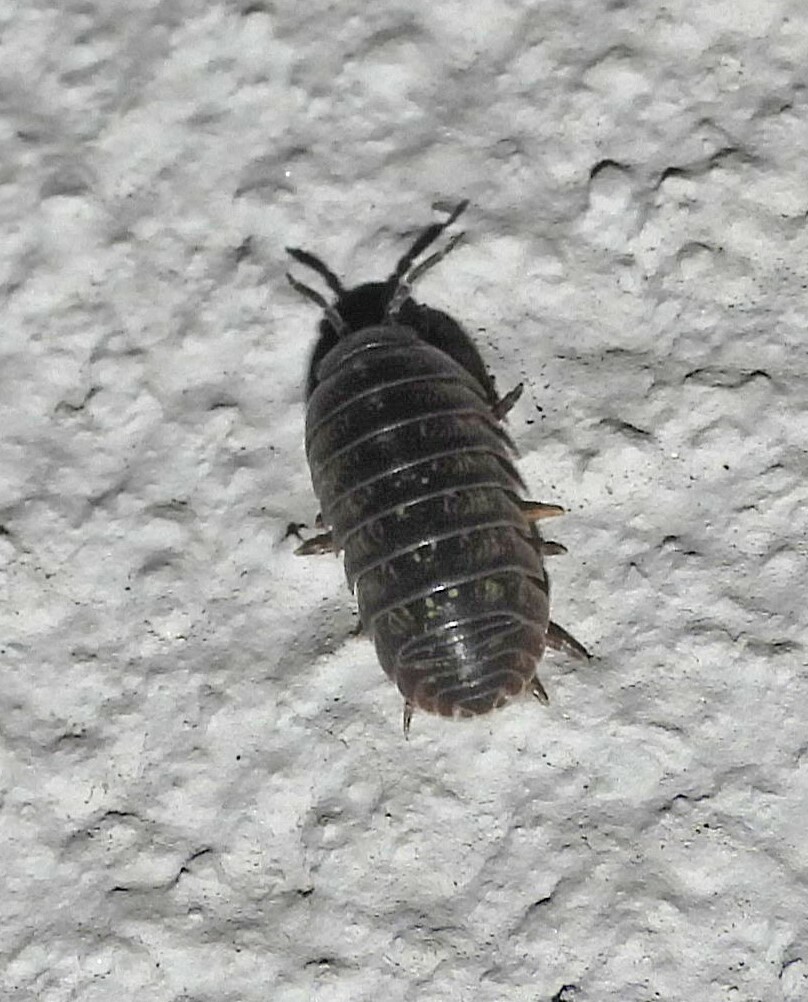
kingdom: Animalia
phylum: Arthropoda
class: Malacostraca
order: Isopoda
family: Armadillidiidae
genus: Armadillidium
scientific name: Armadillidium vulgare
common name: Common pill woodlouse
